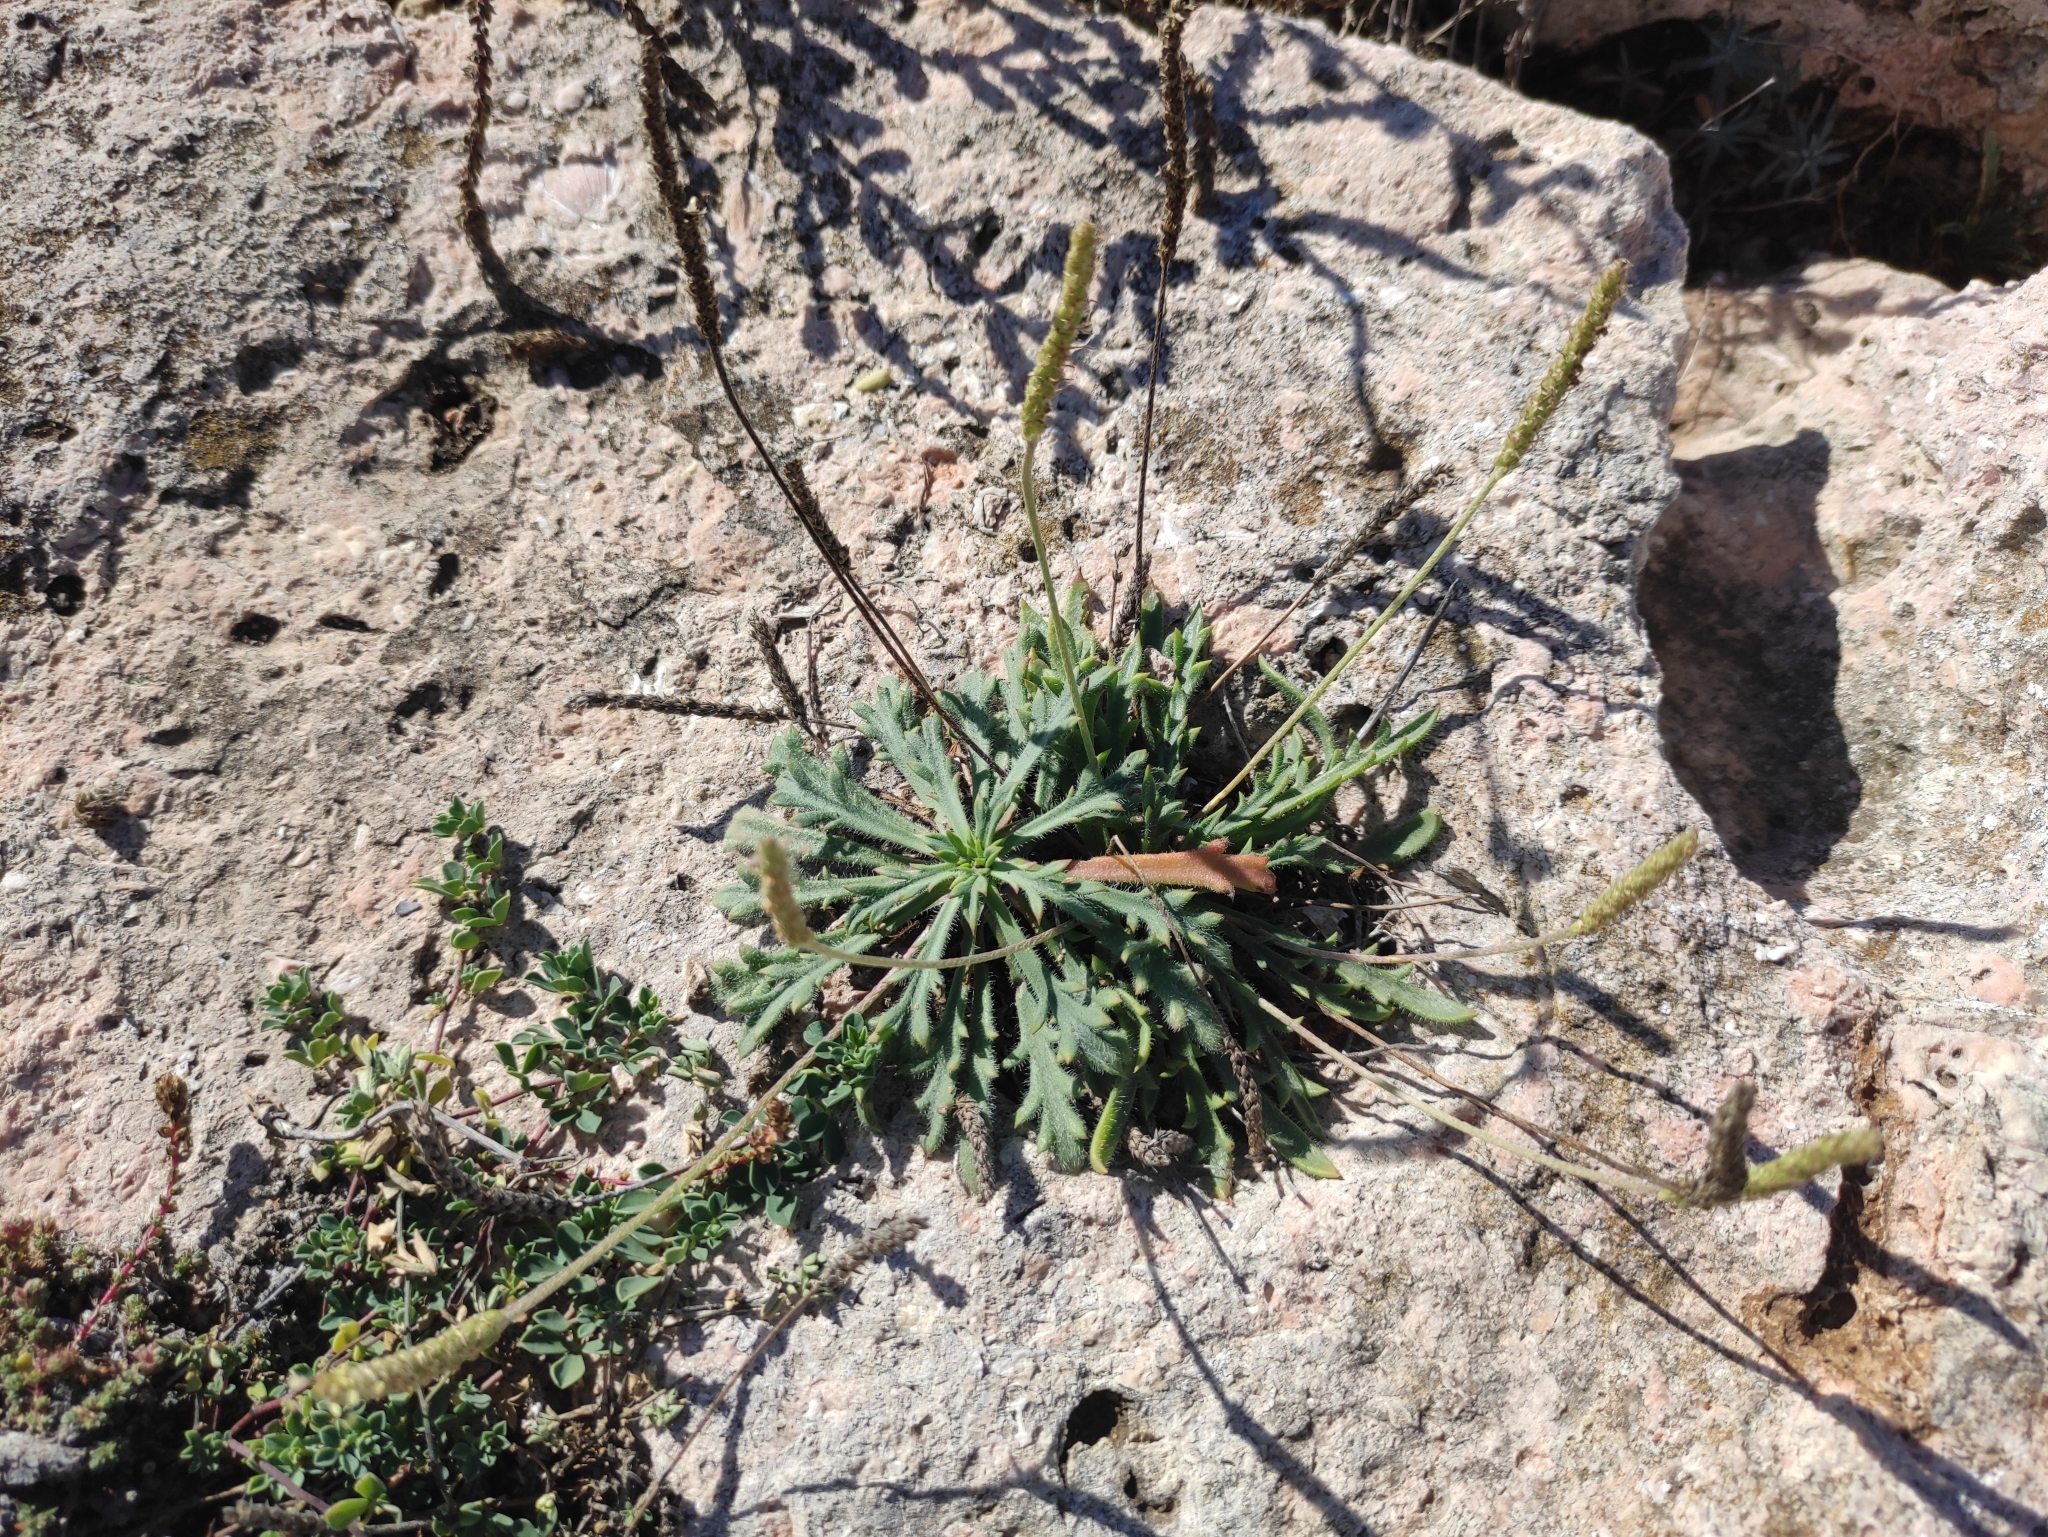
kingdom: Plantae
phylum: Tracheophyta
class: Magnoliopsida
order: Lamiales
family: Plantaginaceae
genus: Plantago
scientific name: Plantago coronopus
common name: Buck's-horn plantain
